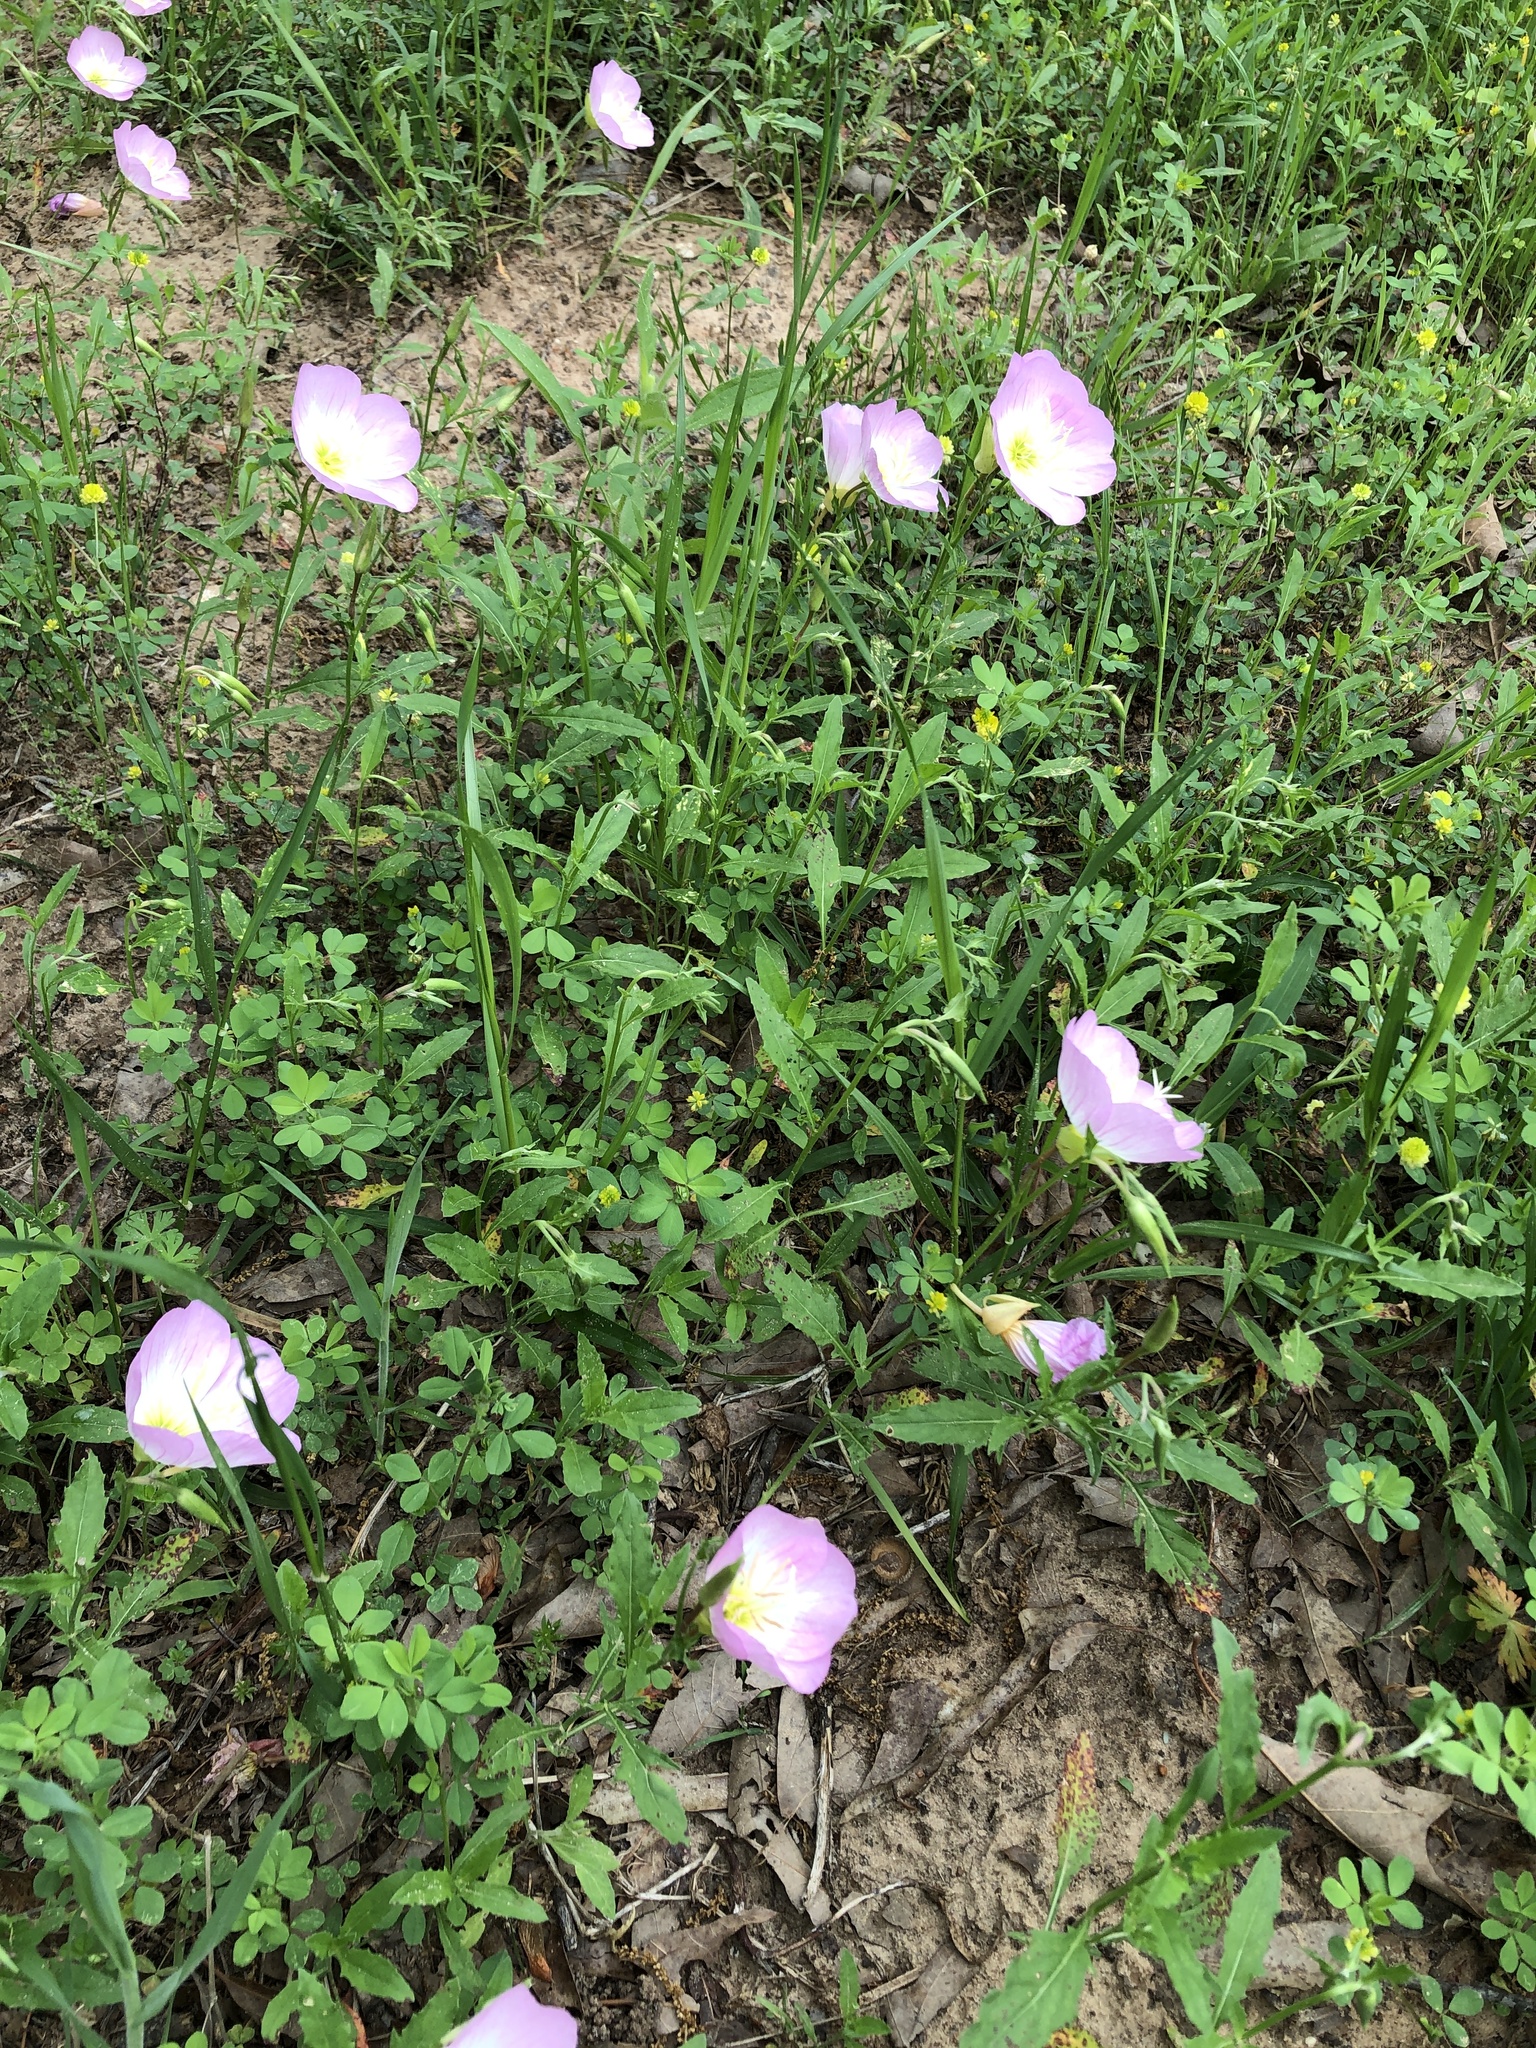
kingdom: Plantae
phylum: Tracheophyta
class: Magnoliopsida
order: Myrtales
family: Onagraceae
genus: Oenothera
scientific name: Oenothera speciosa
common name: White evening-primrose
